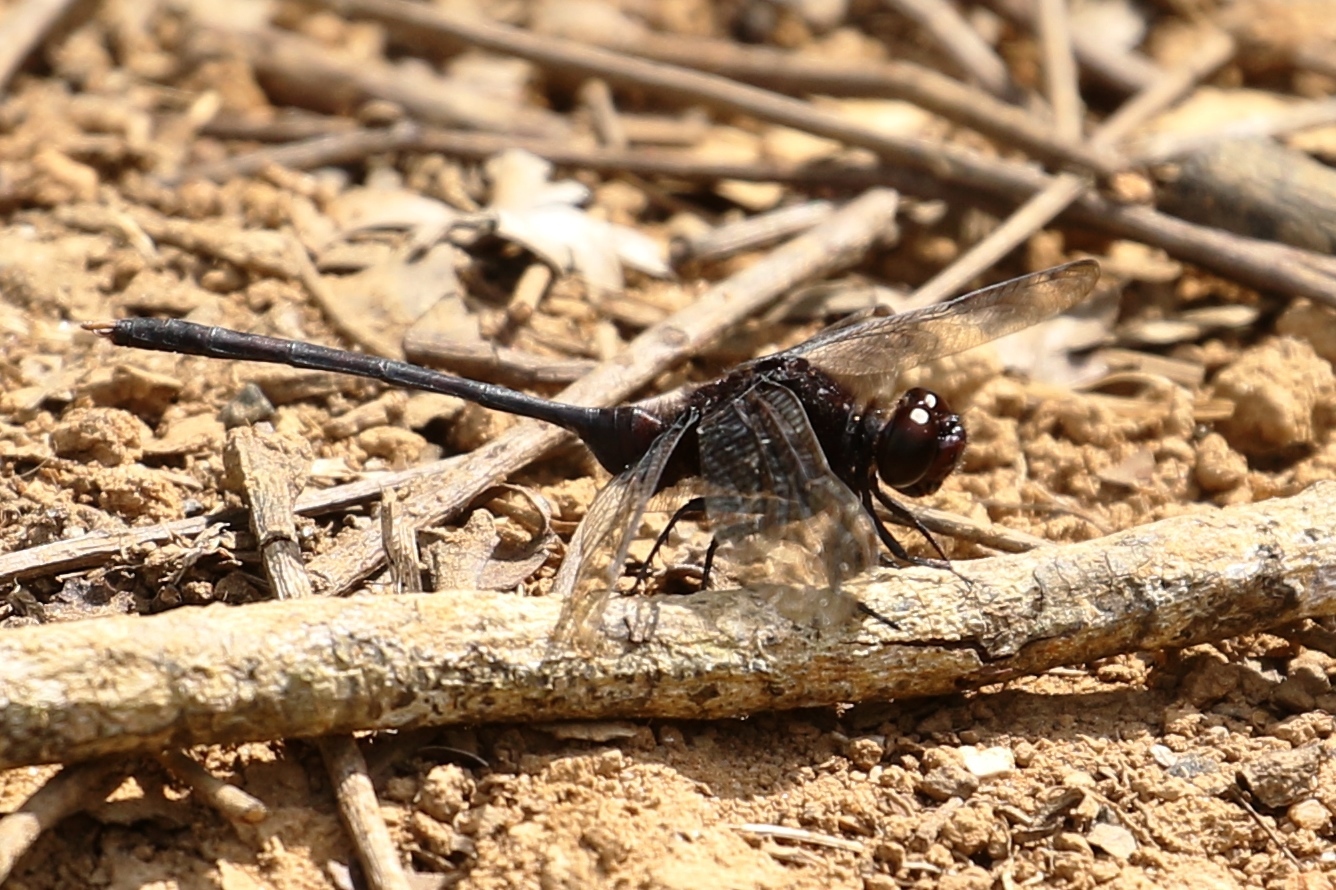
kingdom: Animalia
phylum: Arthropoda
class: Insecta
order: Odonata
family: Libellulidae
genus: Erythemis
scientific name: Erythemis plebeja
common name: Pin-tailed pondhawk
